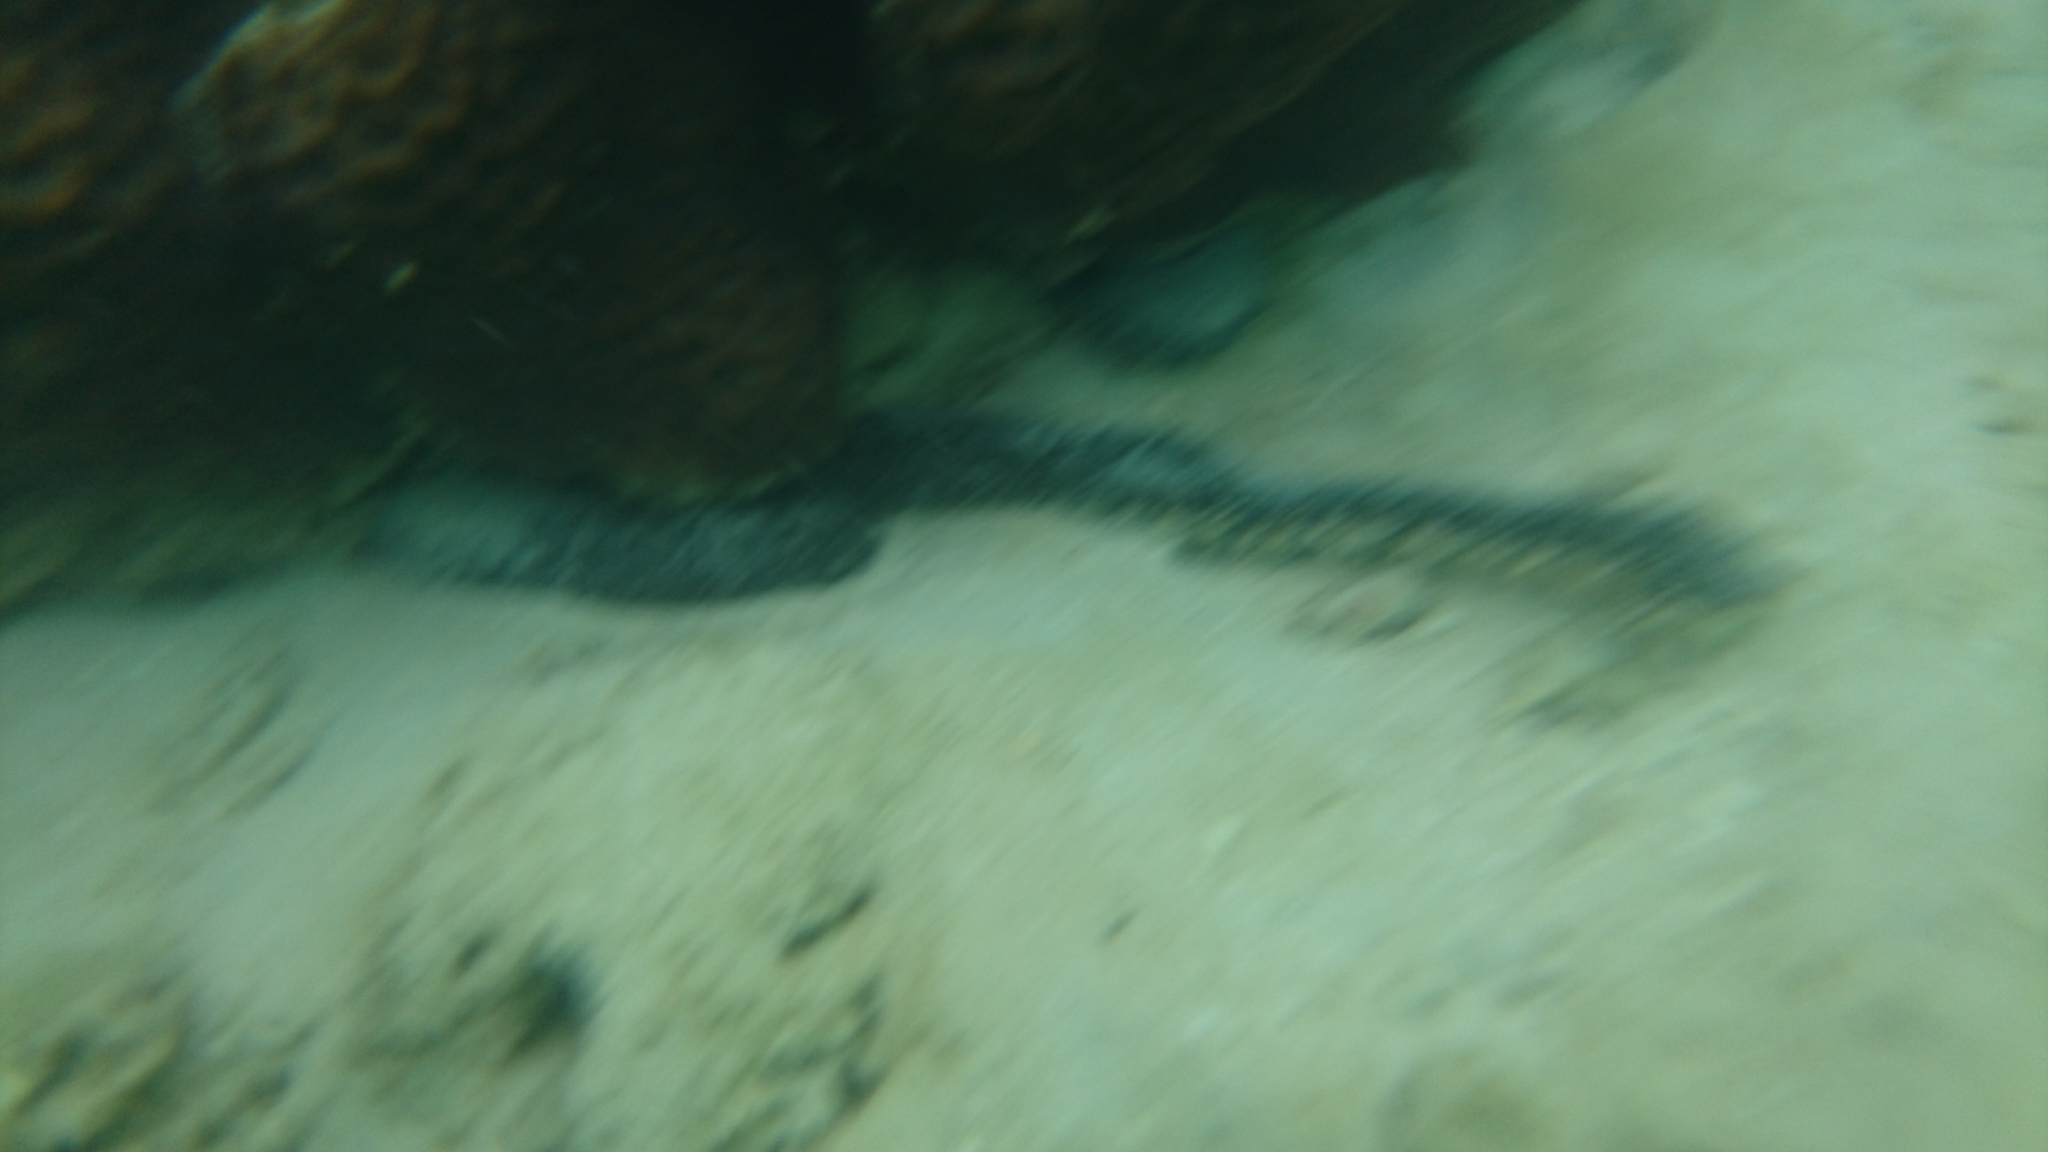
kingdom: Animalia
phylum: Echinodermata
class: Holothuroidea
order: Holothuriida
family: Holothuriidae
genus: Holothuria
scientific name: Holothuria coluber
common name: Snakefish
